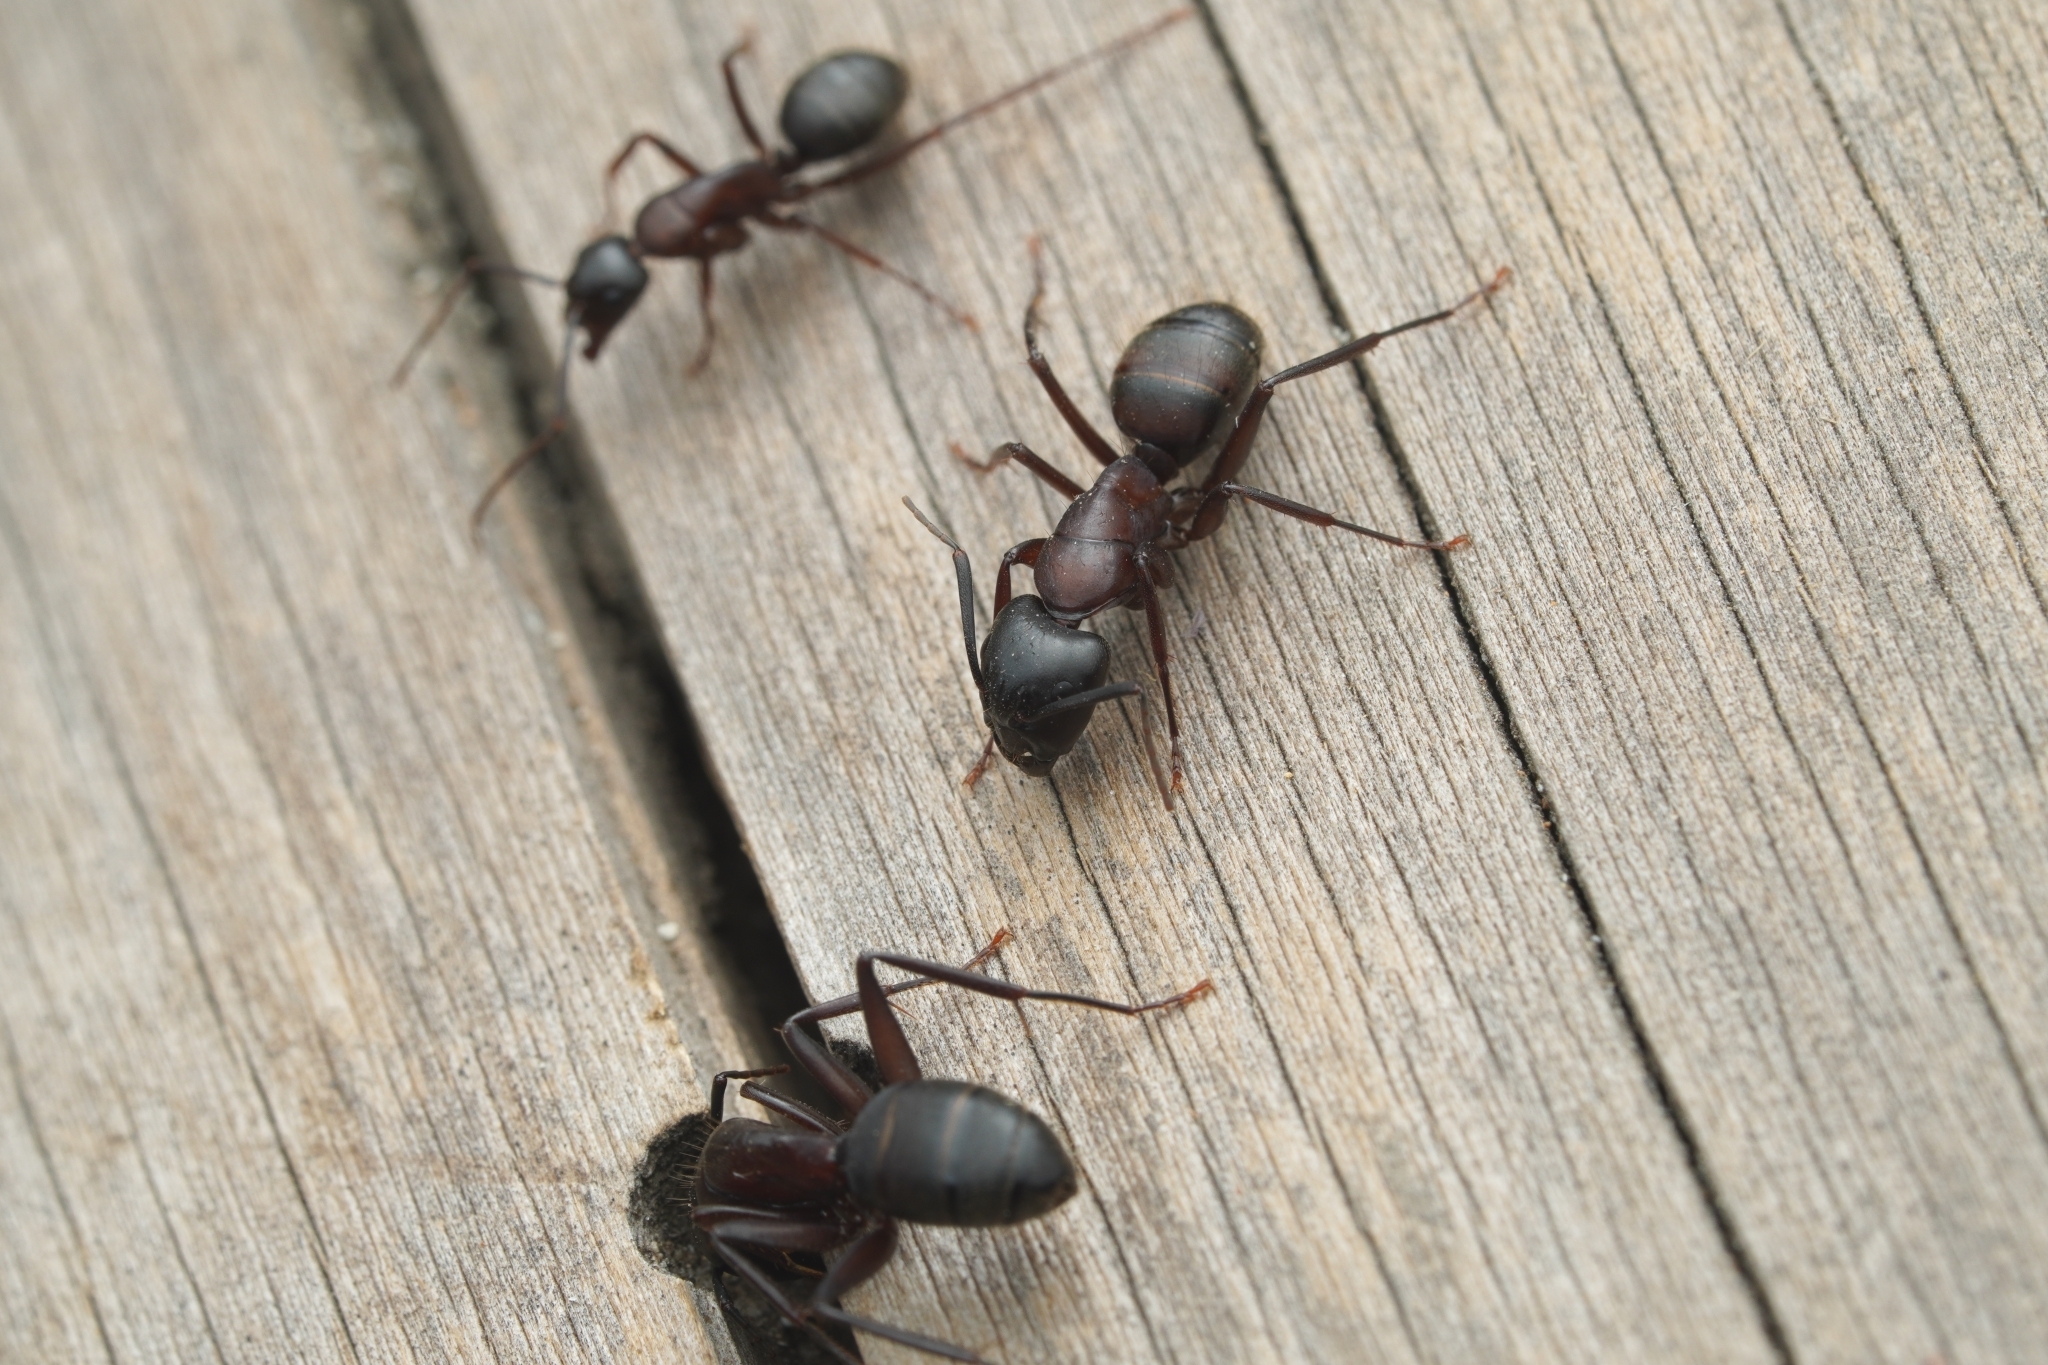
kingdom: Animalia
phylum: Arthropoda
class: Insecta
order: Hymenoptera
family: Formicidae
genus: Camponotus
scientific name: Camponotus vicinus
